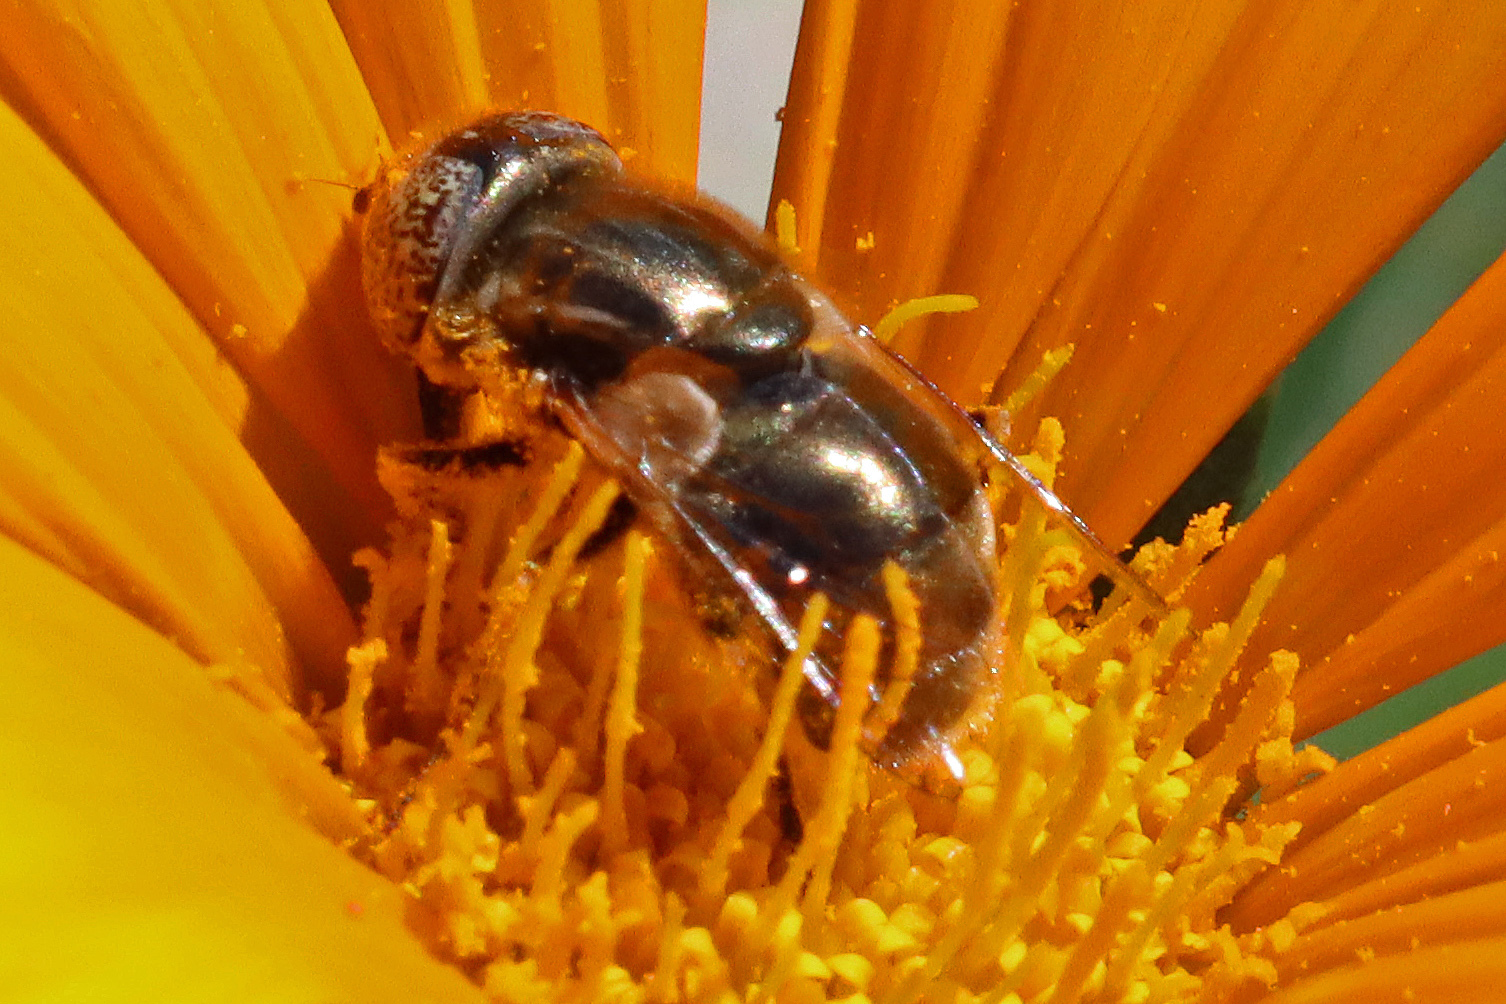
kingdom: Animalia
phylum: Arthropoda
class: Insecta
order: Diptera
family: Syrphidae
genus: Eristalinus
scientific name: Eristalinus aeneus
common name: Syrphid fly
